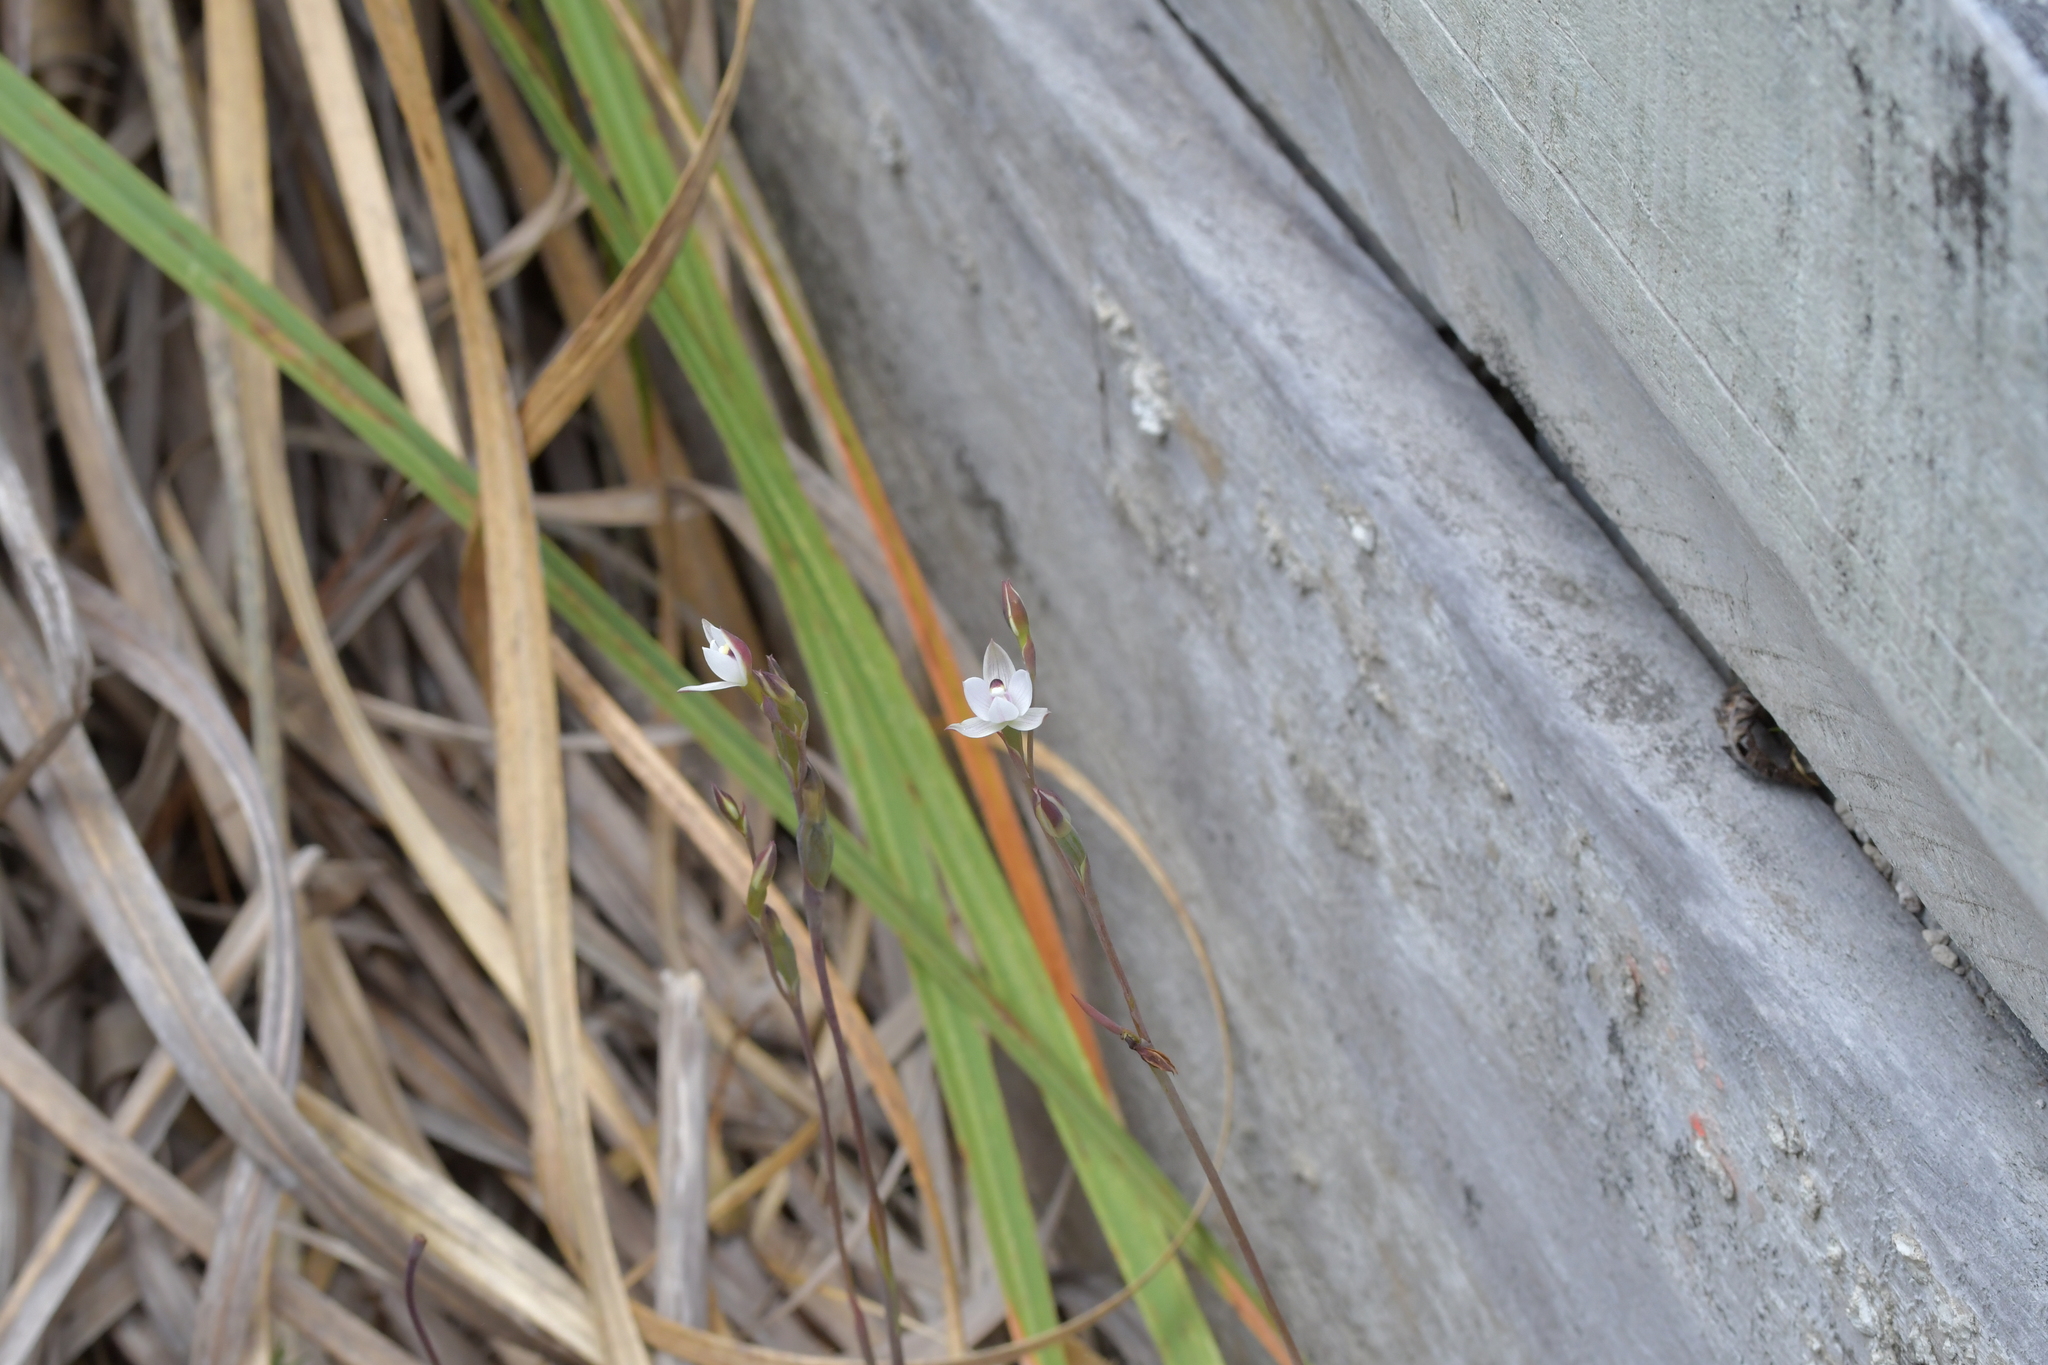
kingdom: Plantae
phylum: Tracheophyta
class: Liliopsida
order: Asparagales
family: Orchidaceae
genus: Thelymitra
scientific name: Thelymitra longifolia
